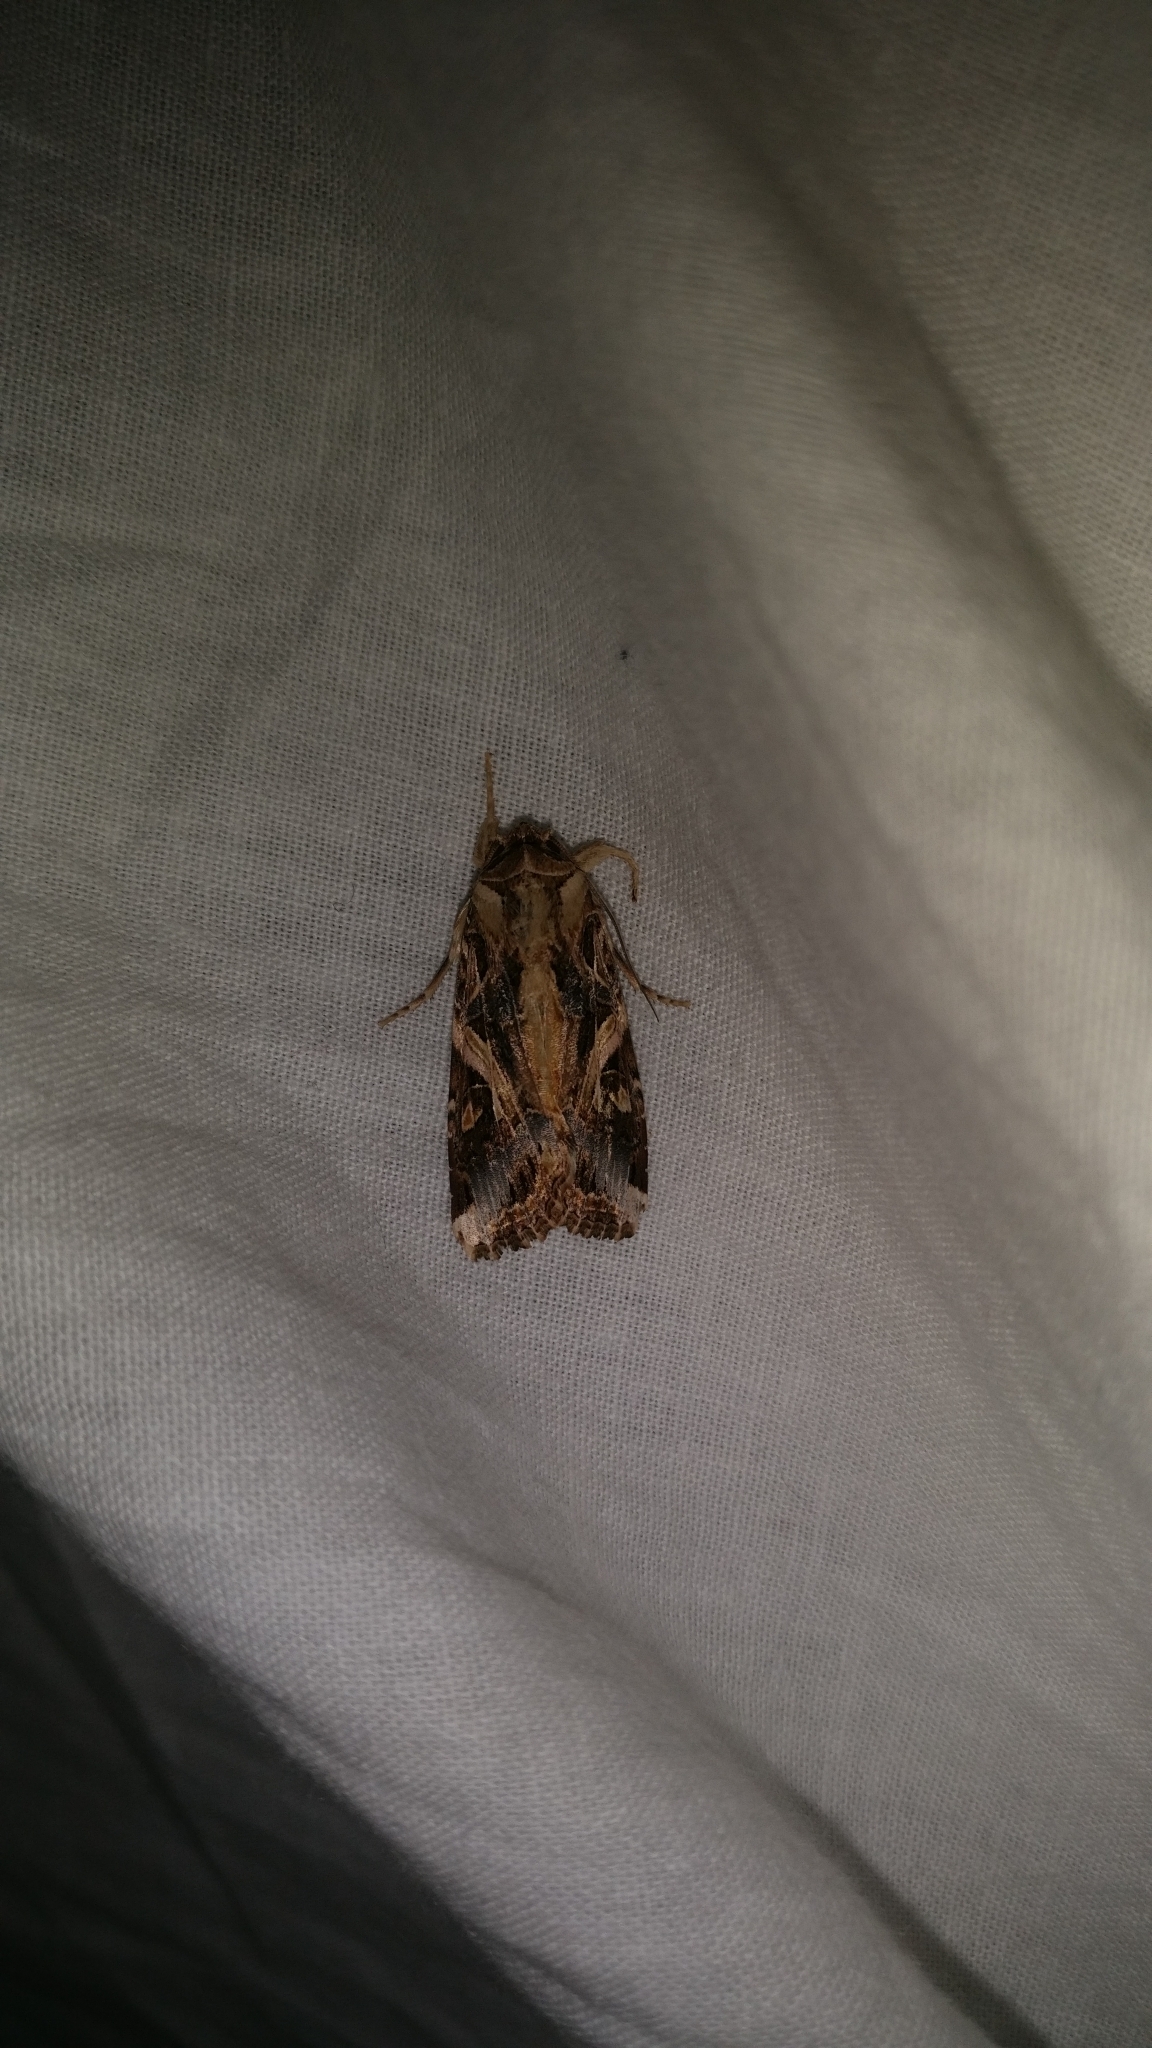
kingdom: Animalia
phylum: Arthropoda
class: Insecta
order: Lepidoptera
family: Noctuidae
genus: Spodoptera
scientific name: Spodoptera litura
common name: Asian cotton leafworm
